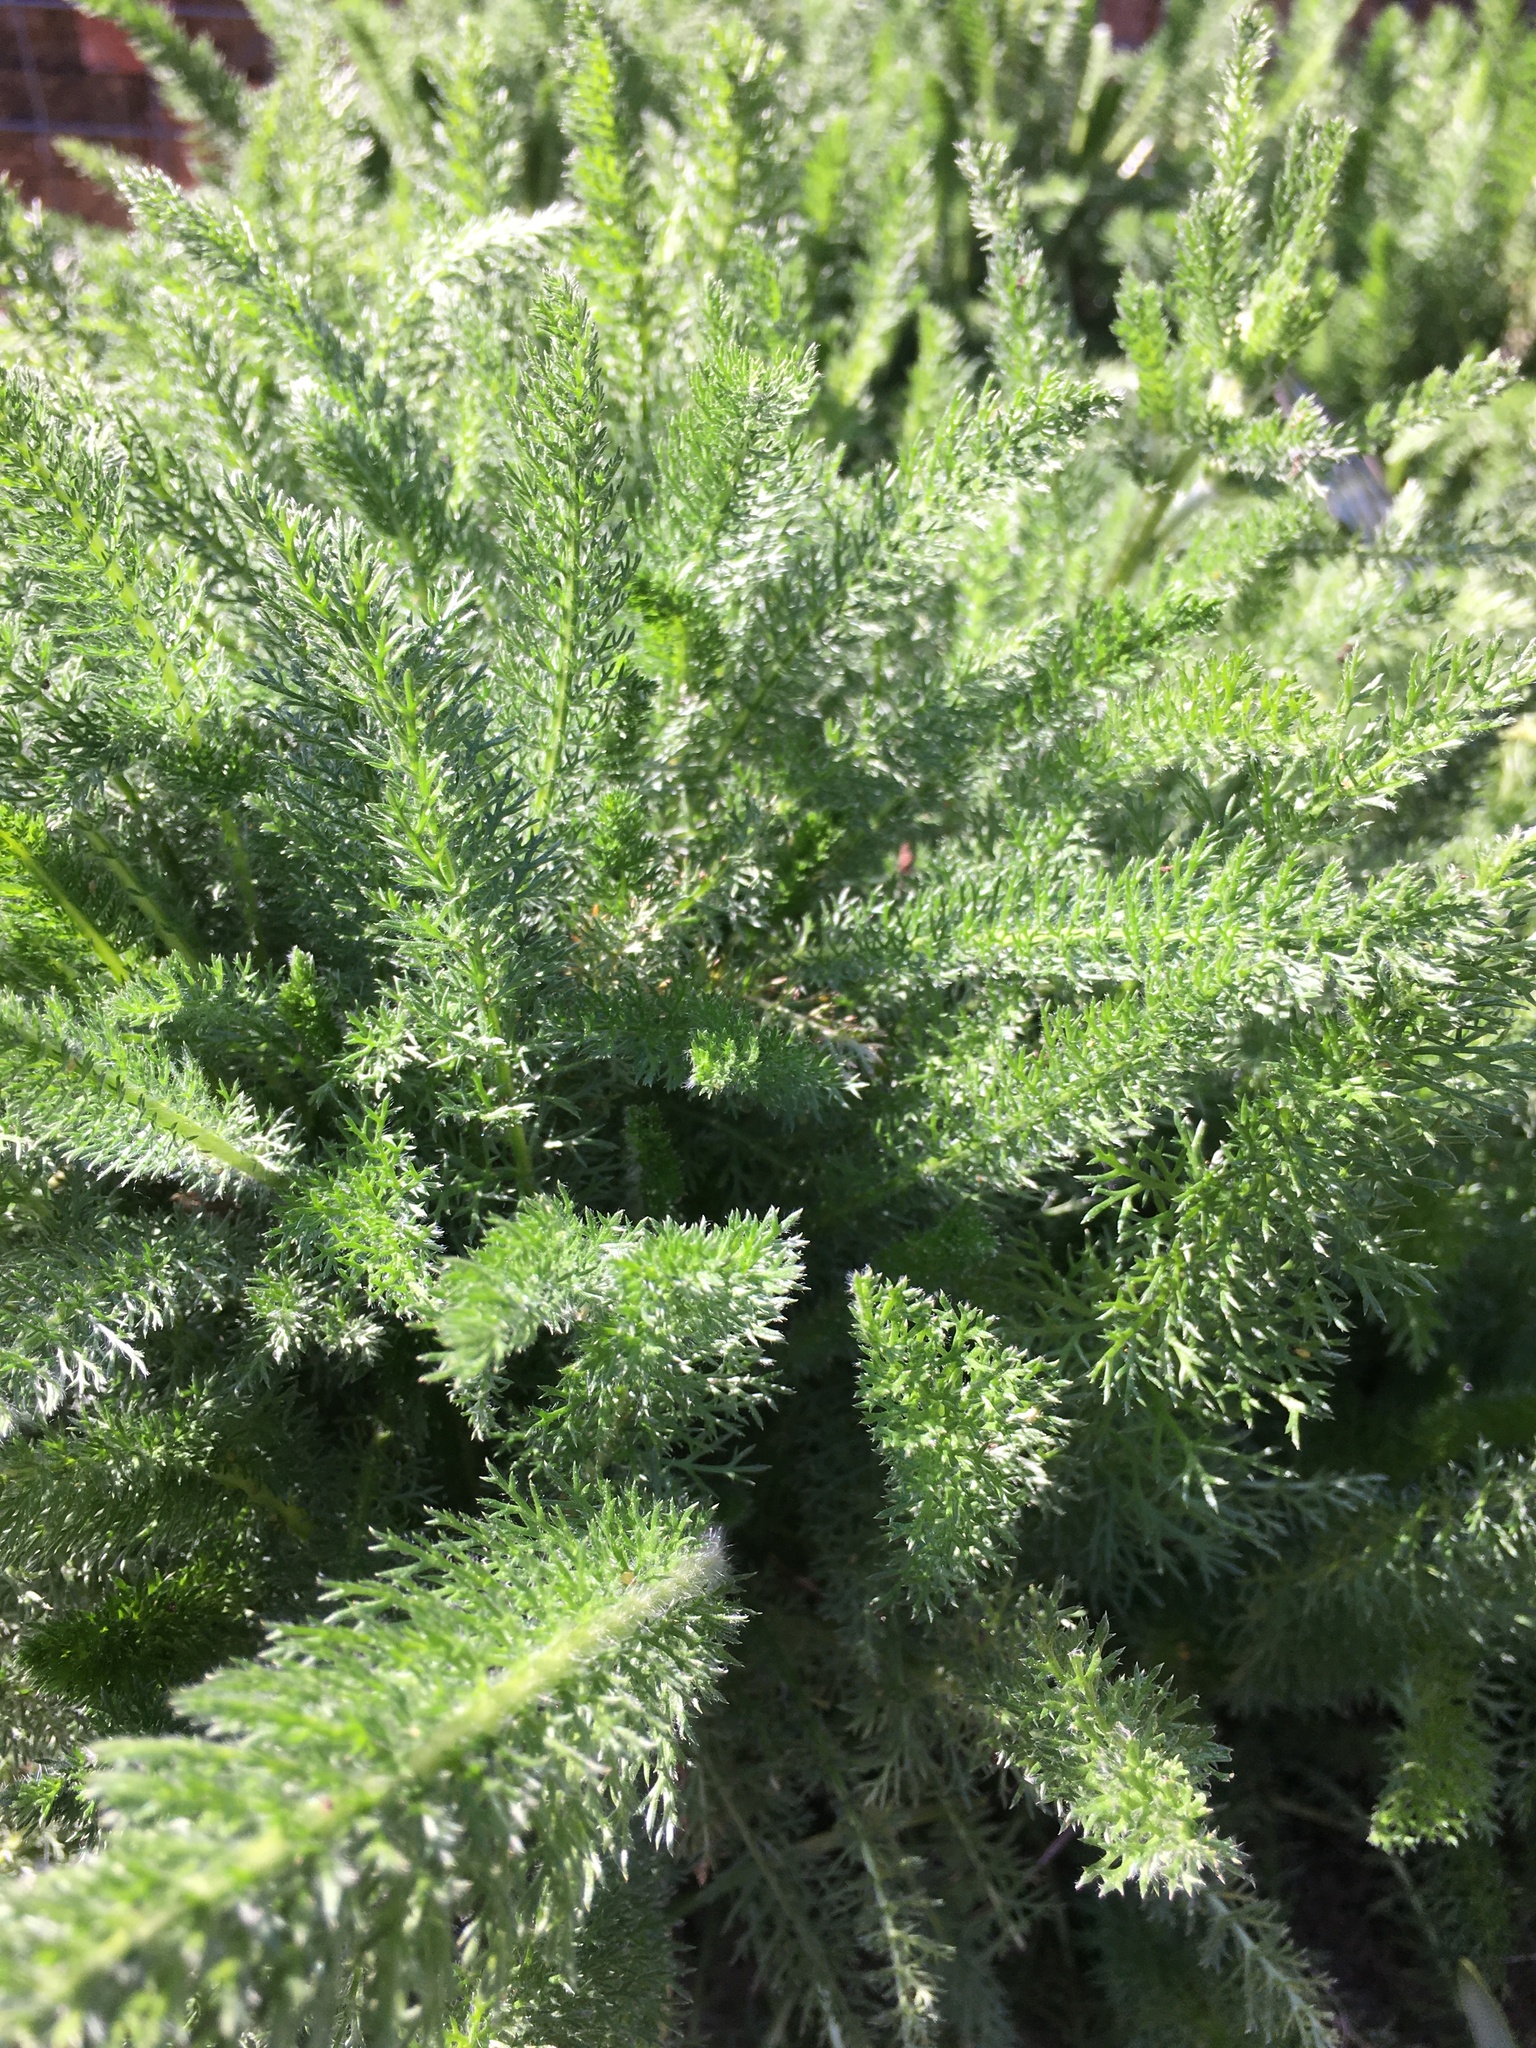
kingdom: Plantae
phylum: Tracheophyta
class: Magnoliopsida
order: Asterales
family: Asteraceae
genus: Achillea
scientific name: Achillea millefolium
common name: Yarrow
